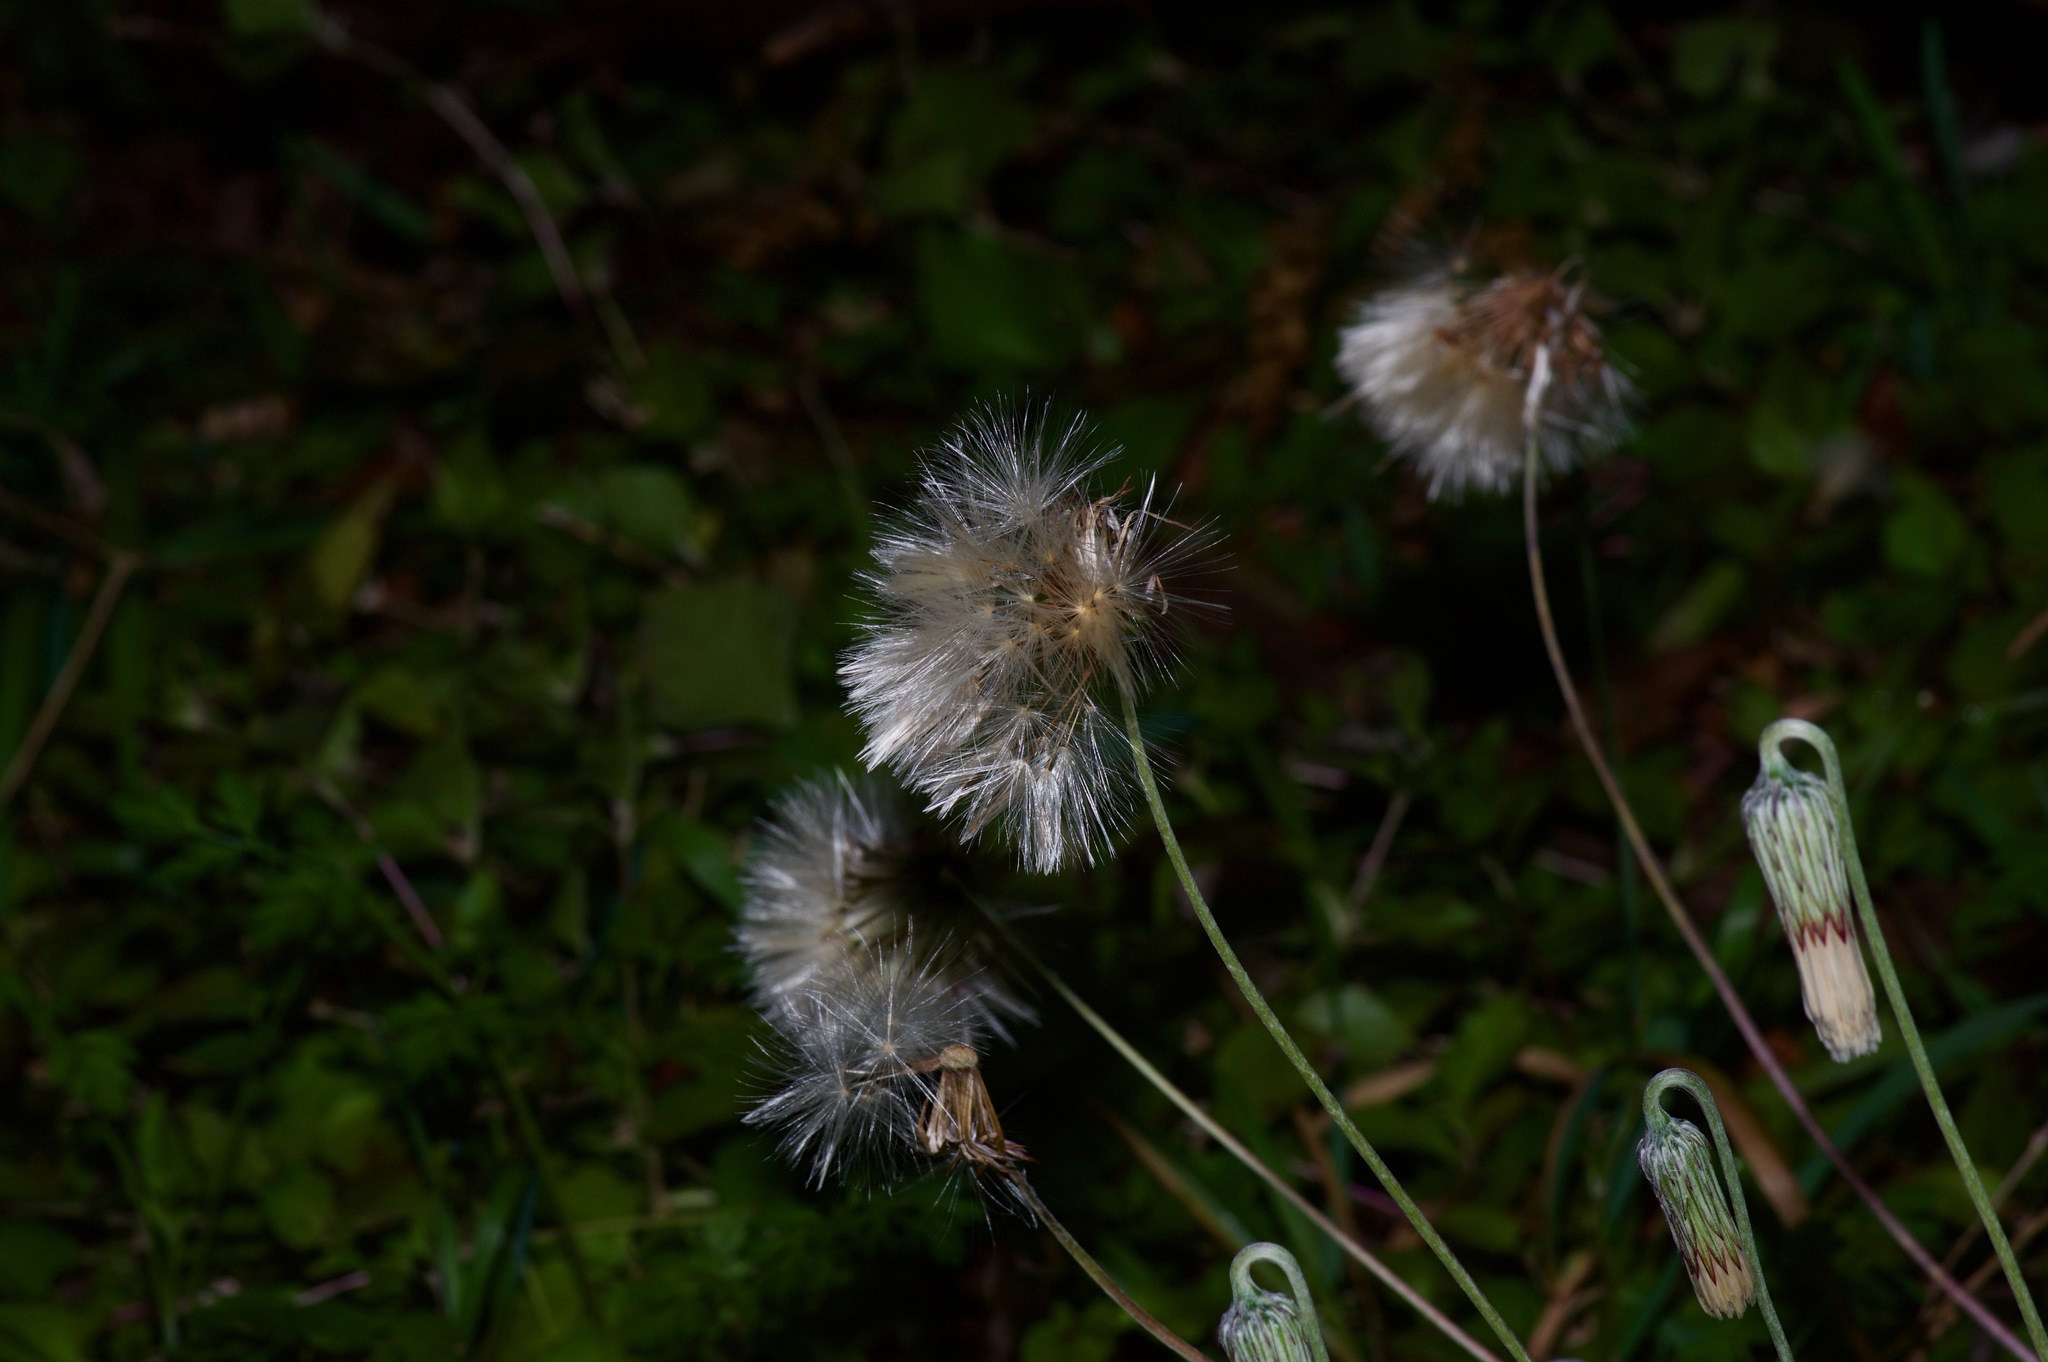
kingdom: Plantae
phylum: Tracheophyta
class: Magnoliopsida
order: Asterales
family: Asteraceae
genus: Chaptalia
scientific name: Chaptalia texana
